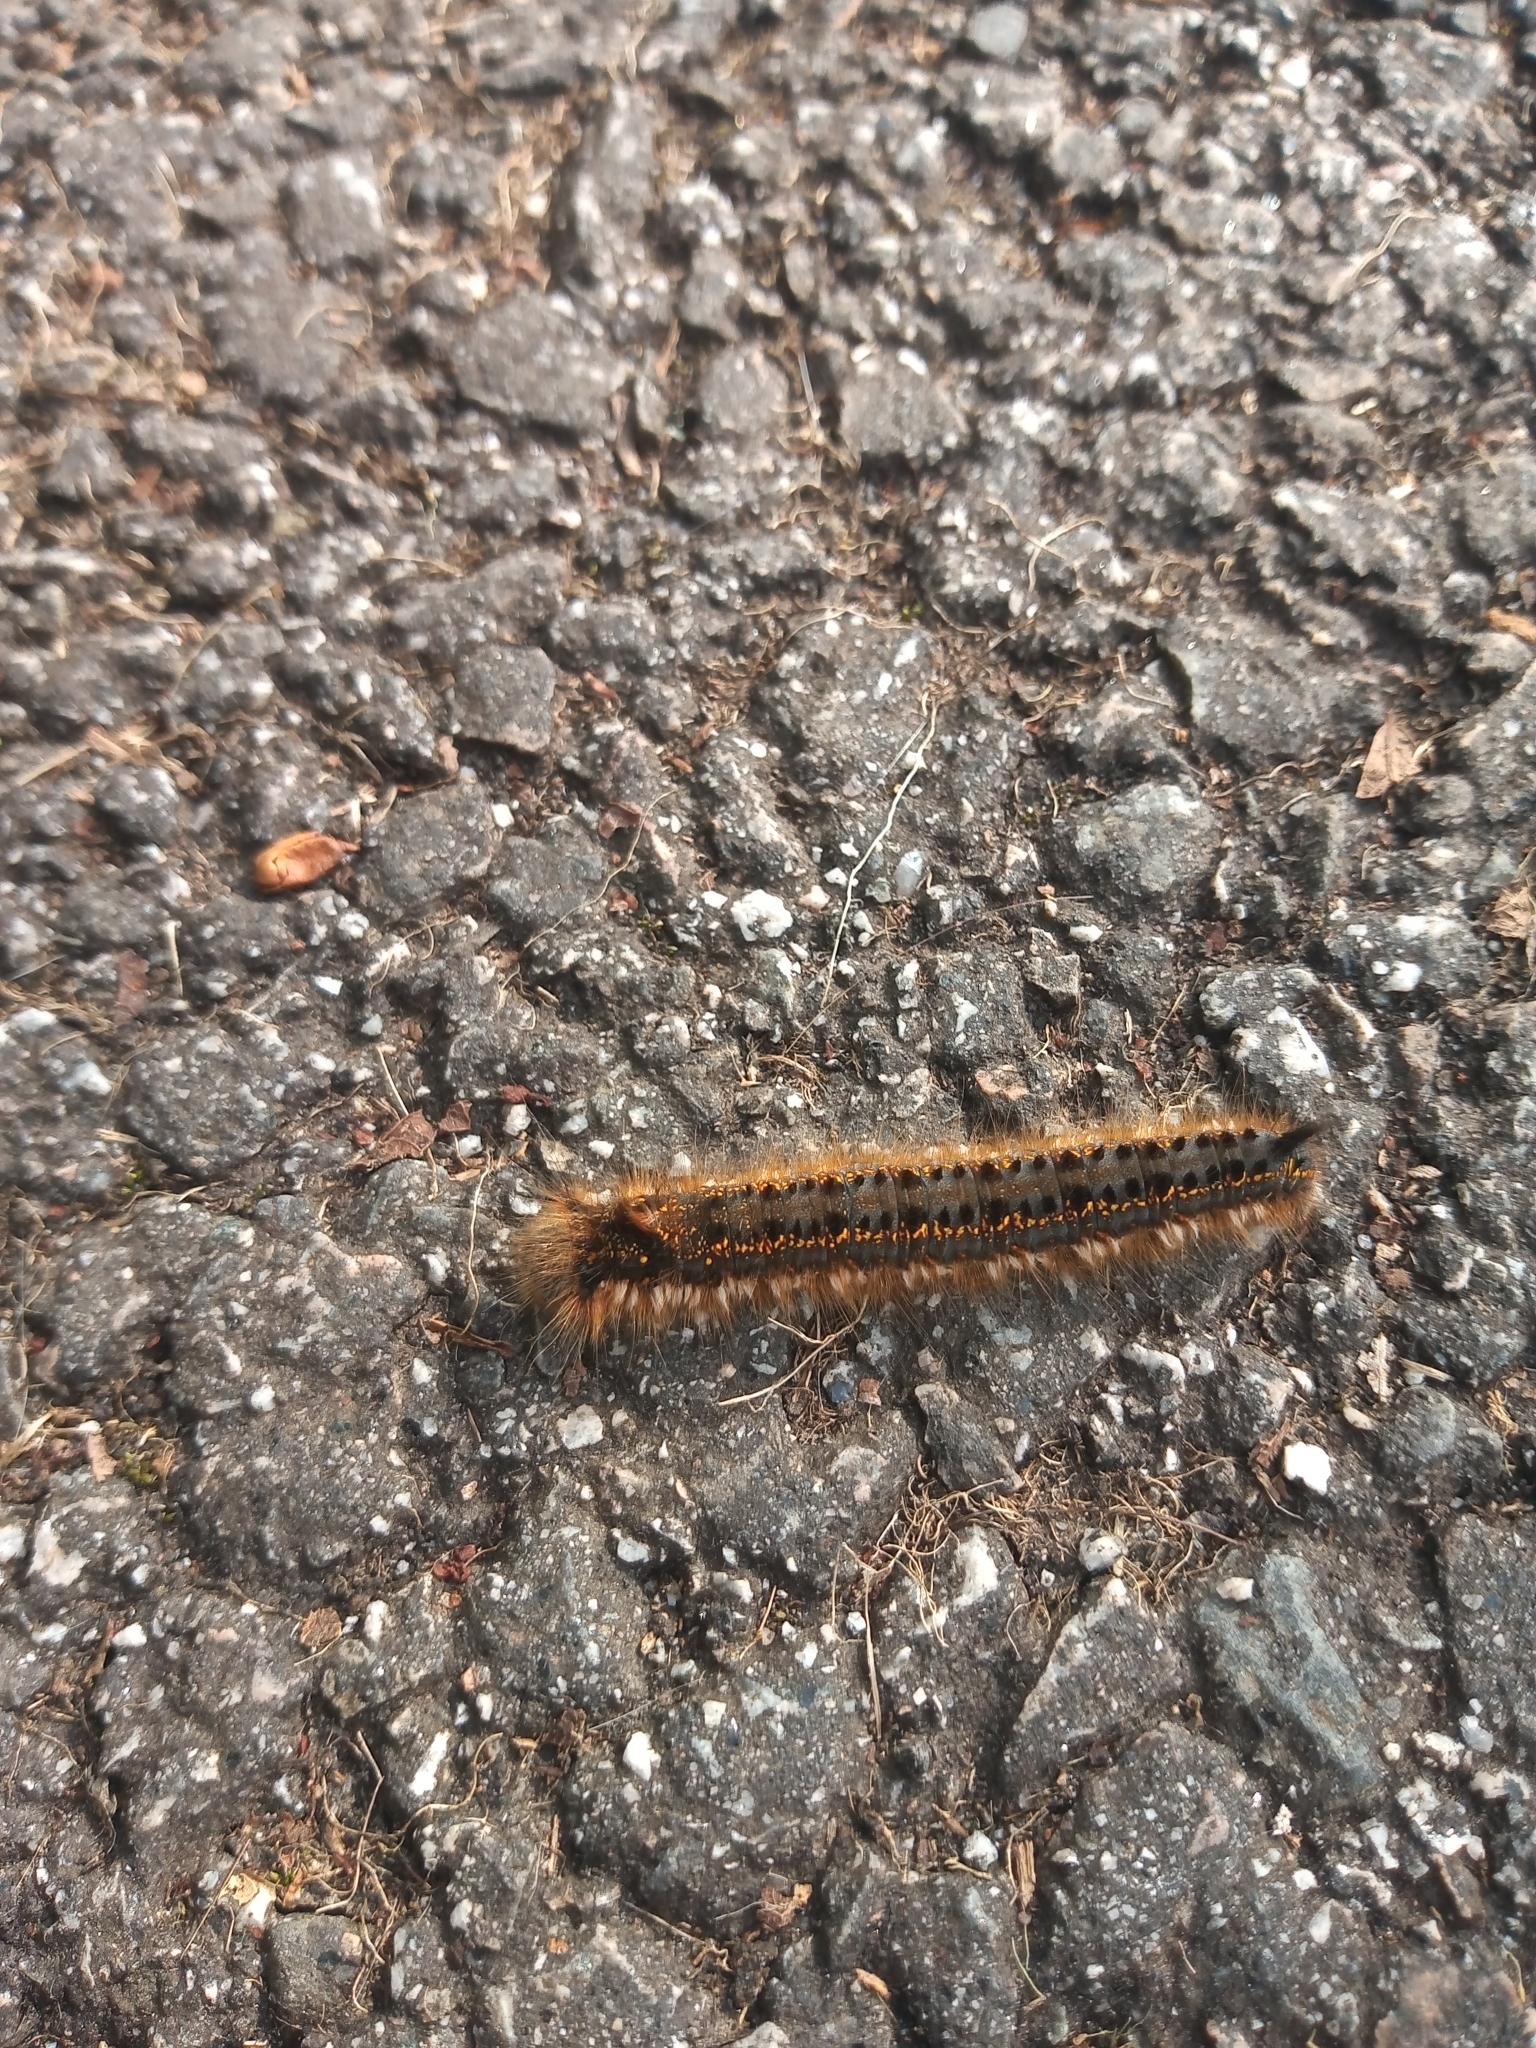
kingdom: Animalia
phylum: Arthropoda
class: Insecta
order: Lepidoptera
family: Lasiocampidae
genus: Euthrix
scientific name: Euthrix potatoria
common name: Drinker
